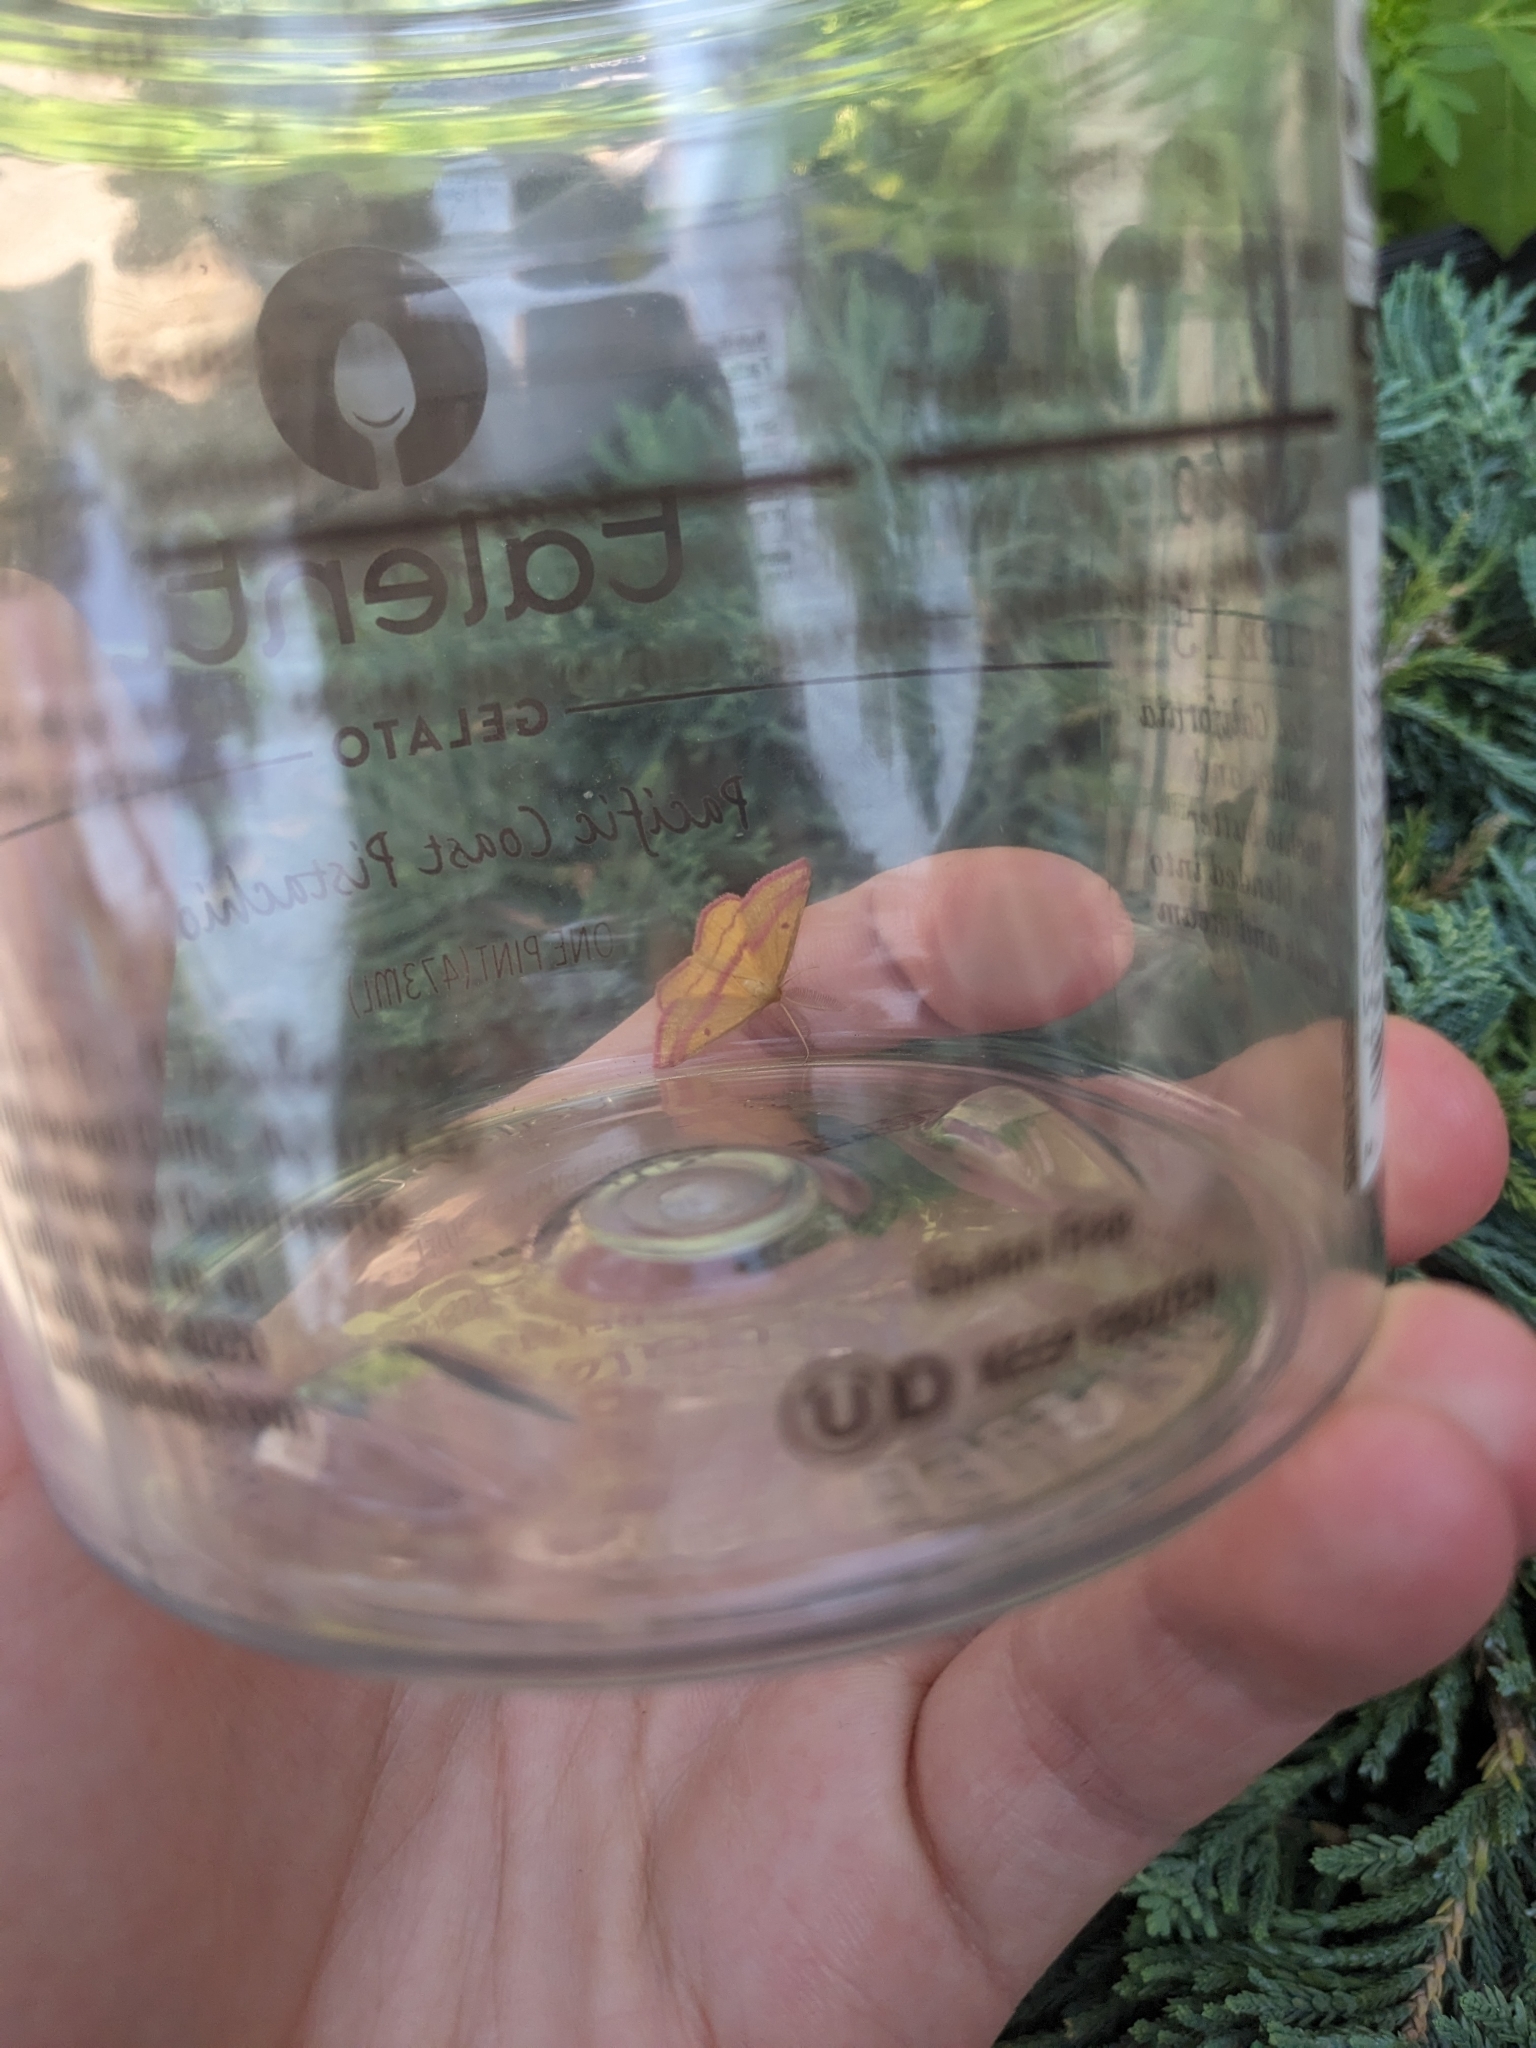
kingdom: Animalia
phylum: Arthropoda
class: Insecta
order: Lepidoptera
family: Geometridae
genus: Haematopis
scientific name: Haematopis grataria
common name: Chickweed geometer
